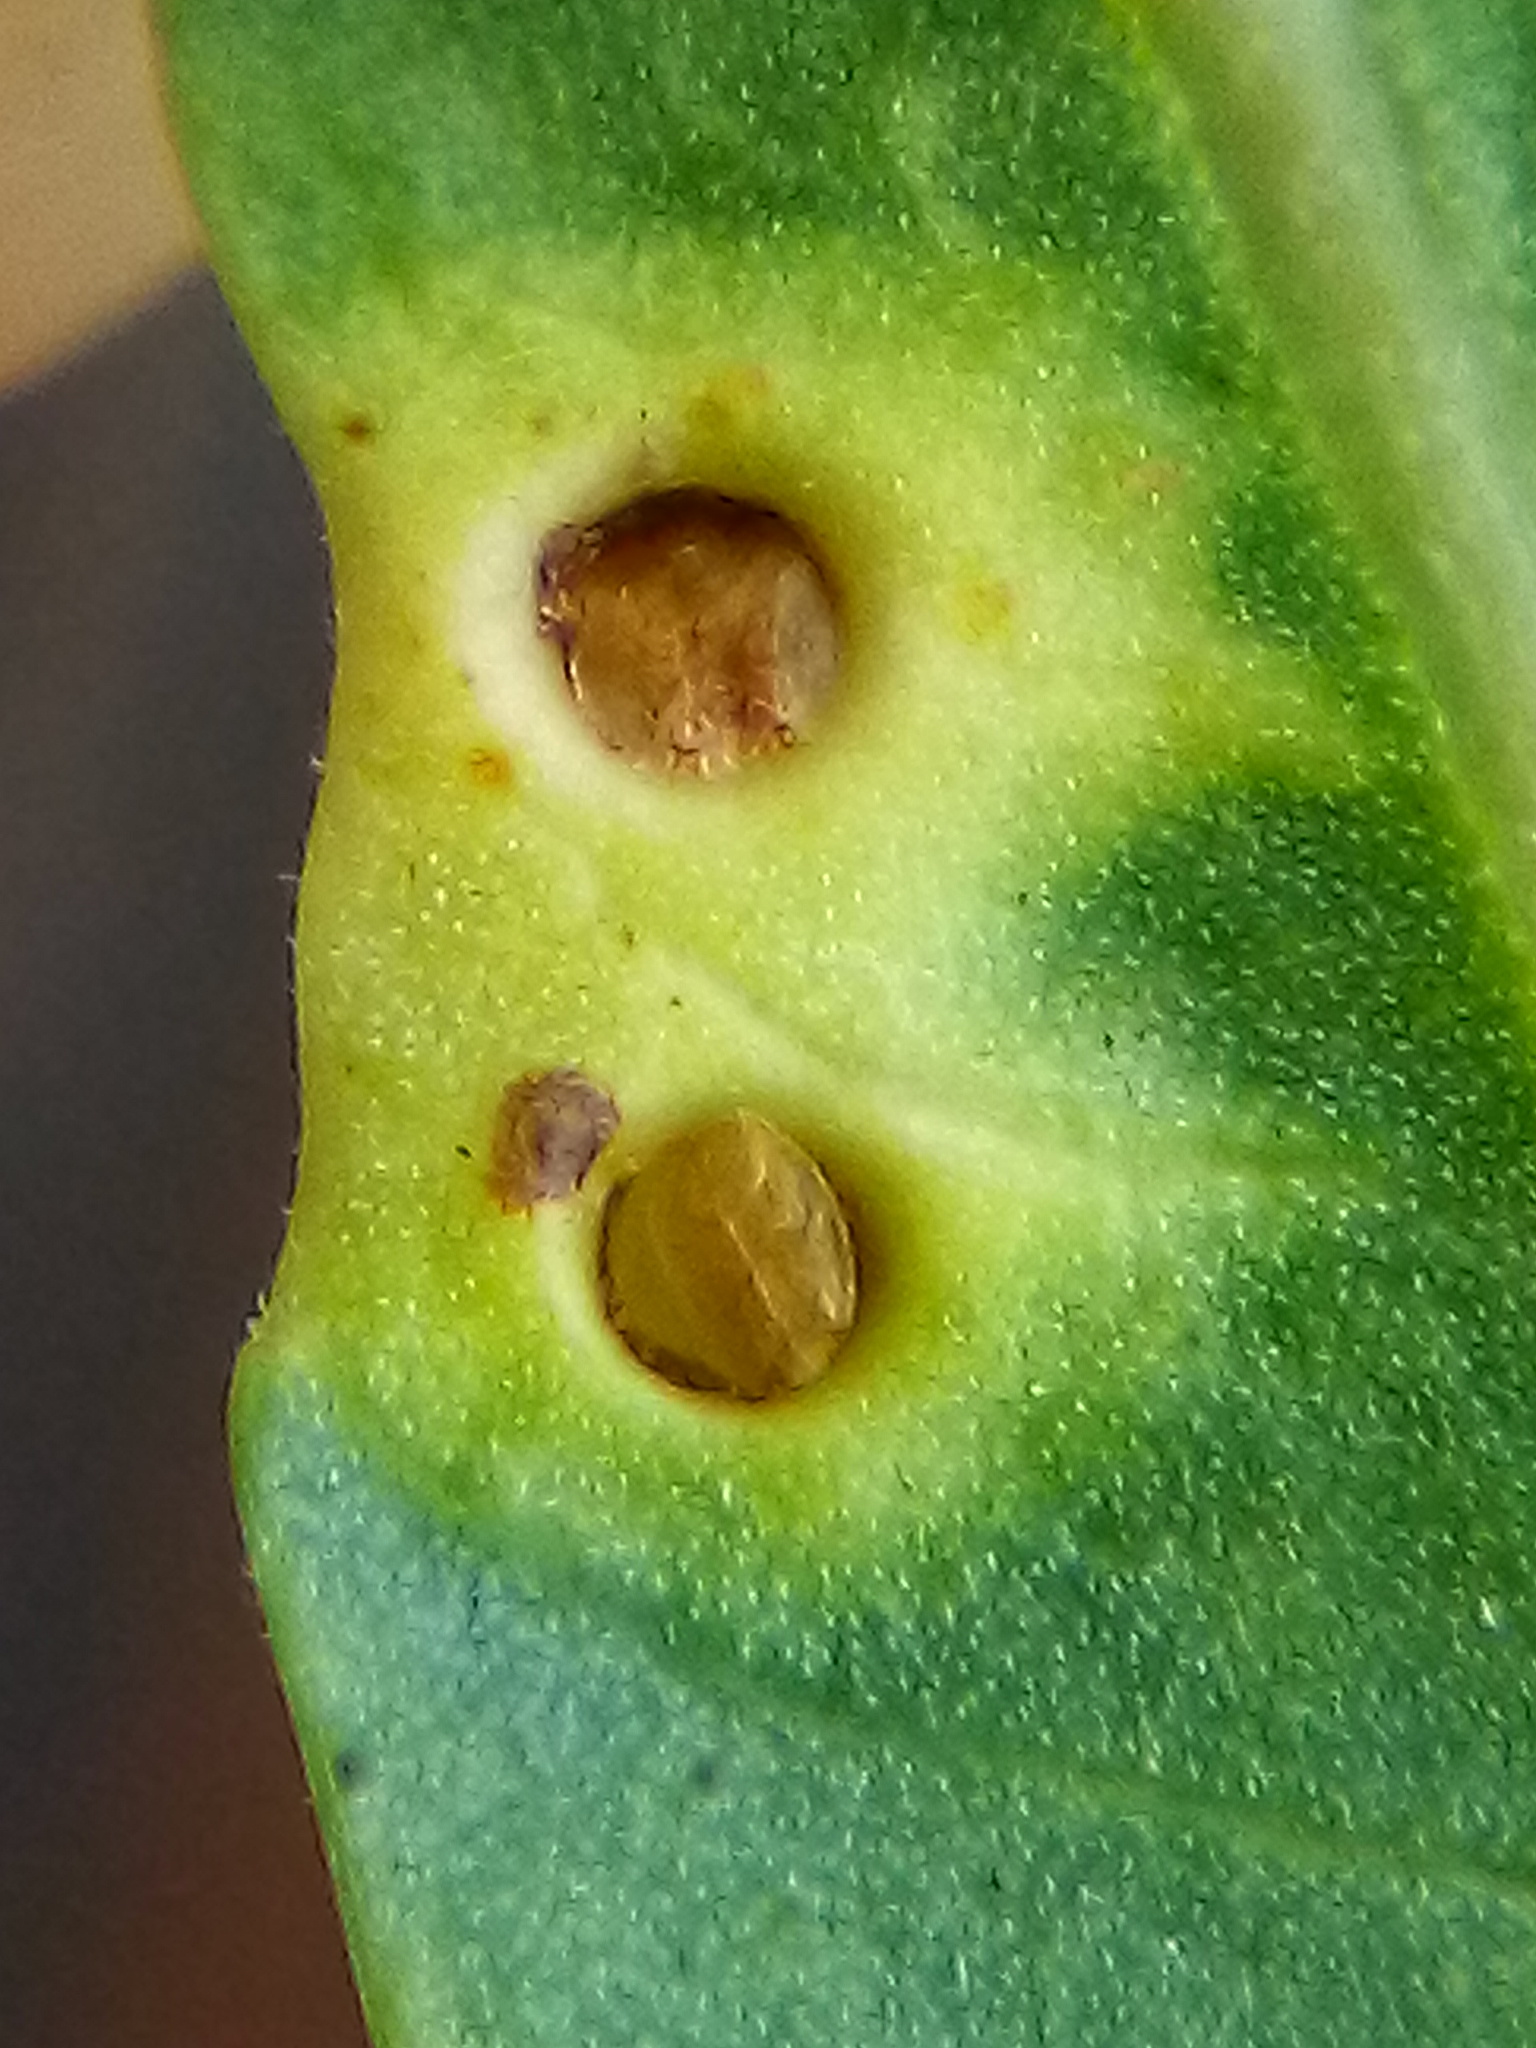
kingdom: Animalia
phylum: Arthropoda
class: Insecta
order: Hemiptera
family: Calophyidae
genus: Calophya
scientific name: Calophya schini
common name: Pepper tree psyllid
